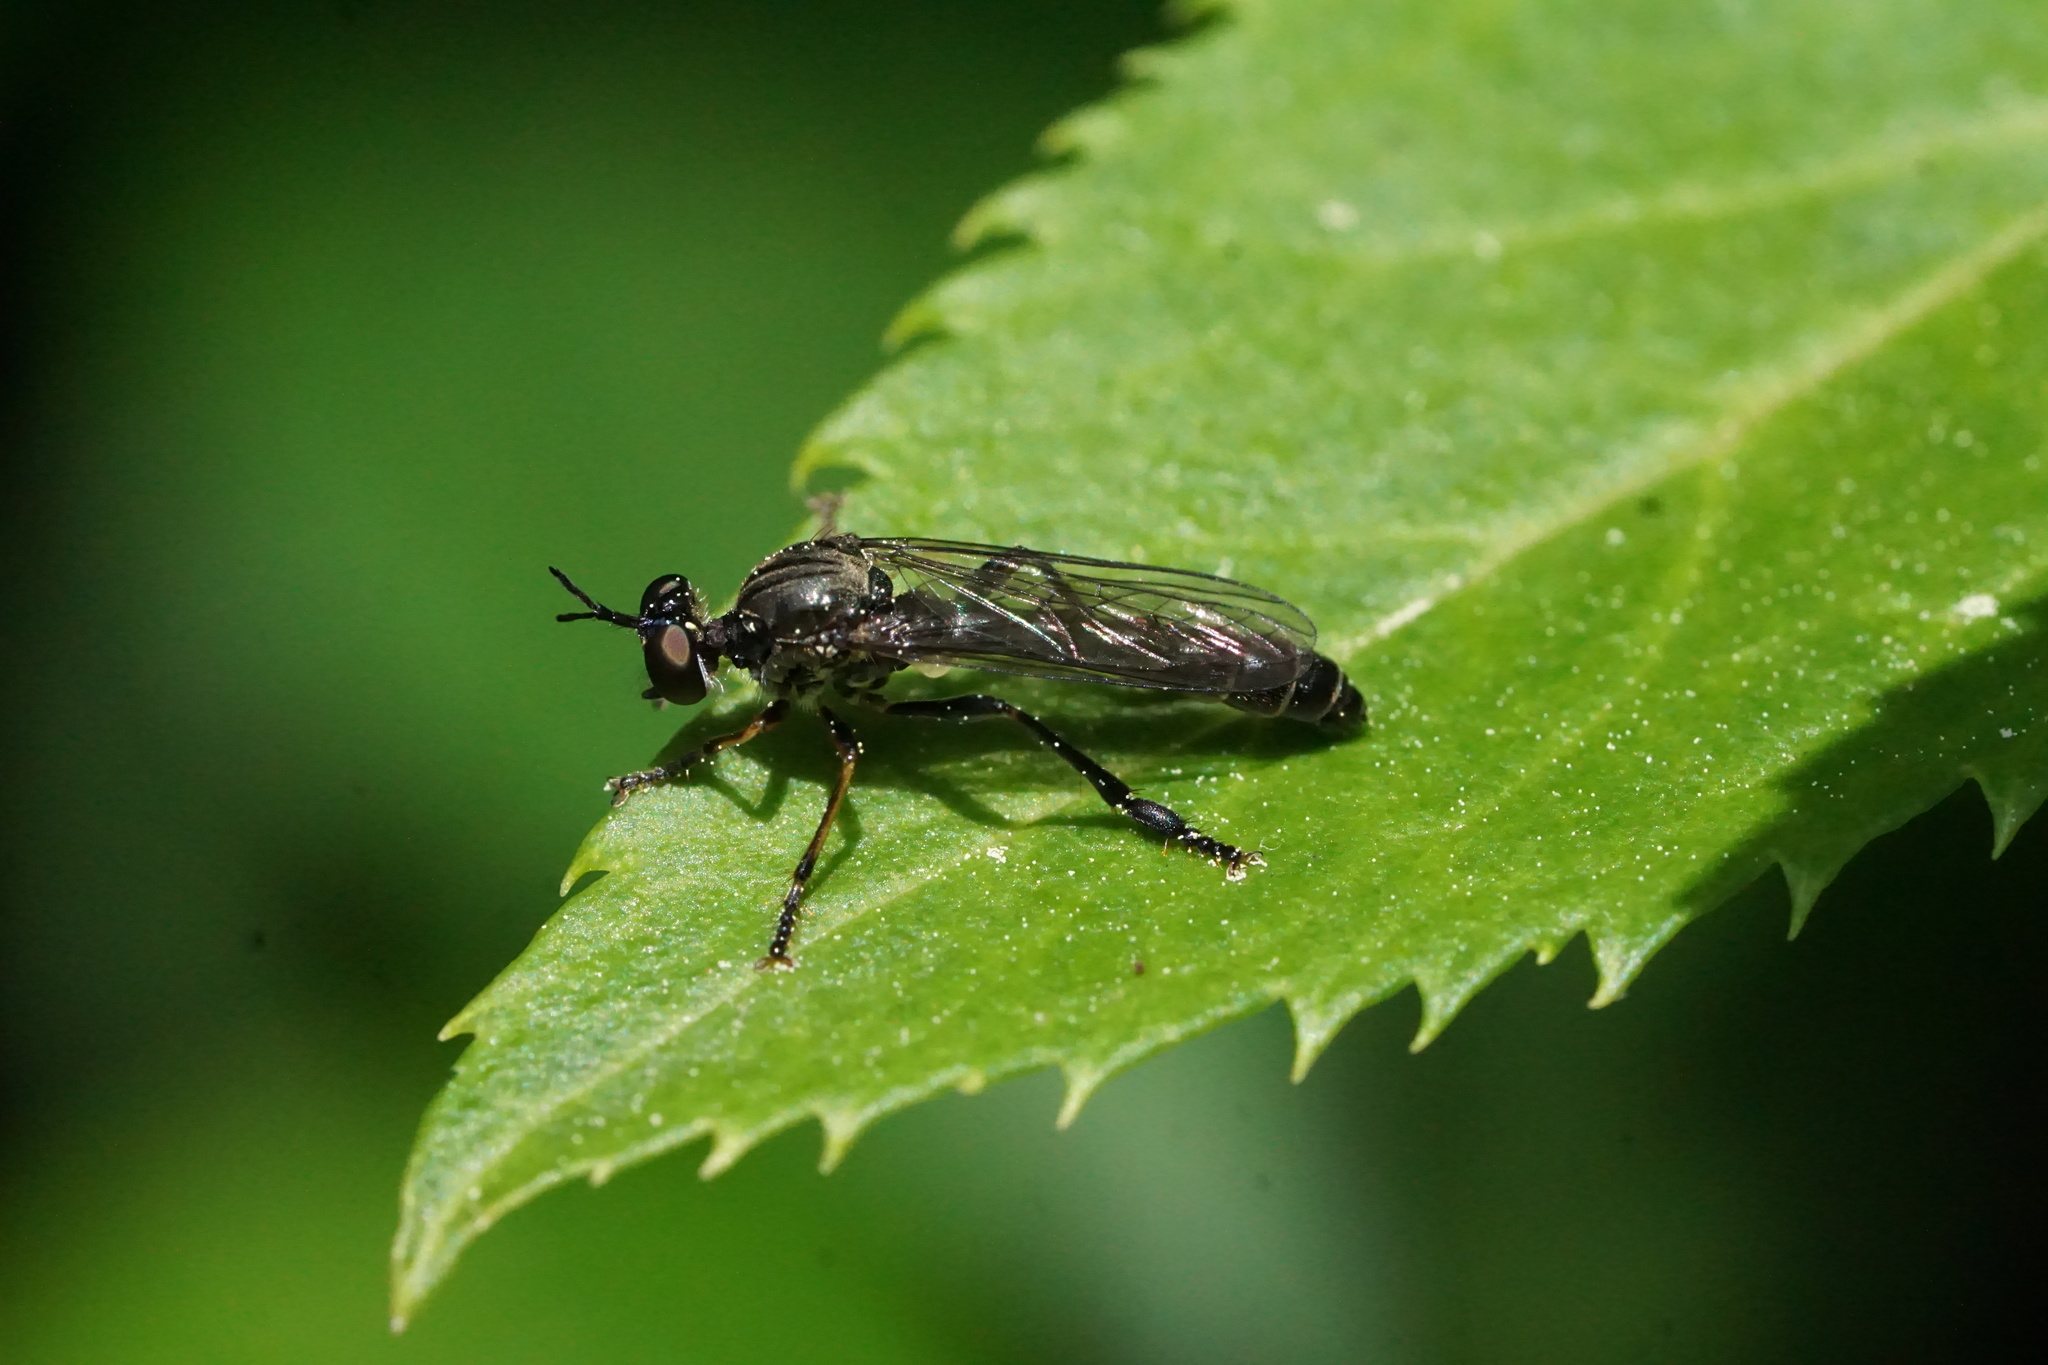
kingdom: Animalia
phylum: Arthropoda
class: Insecta
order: Diptera
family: Asilidae
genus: Dioctria
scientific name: Dioctria hyalipennis
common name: Stripe-legged robberfly
